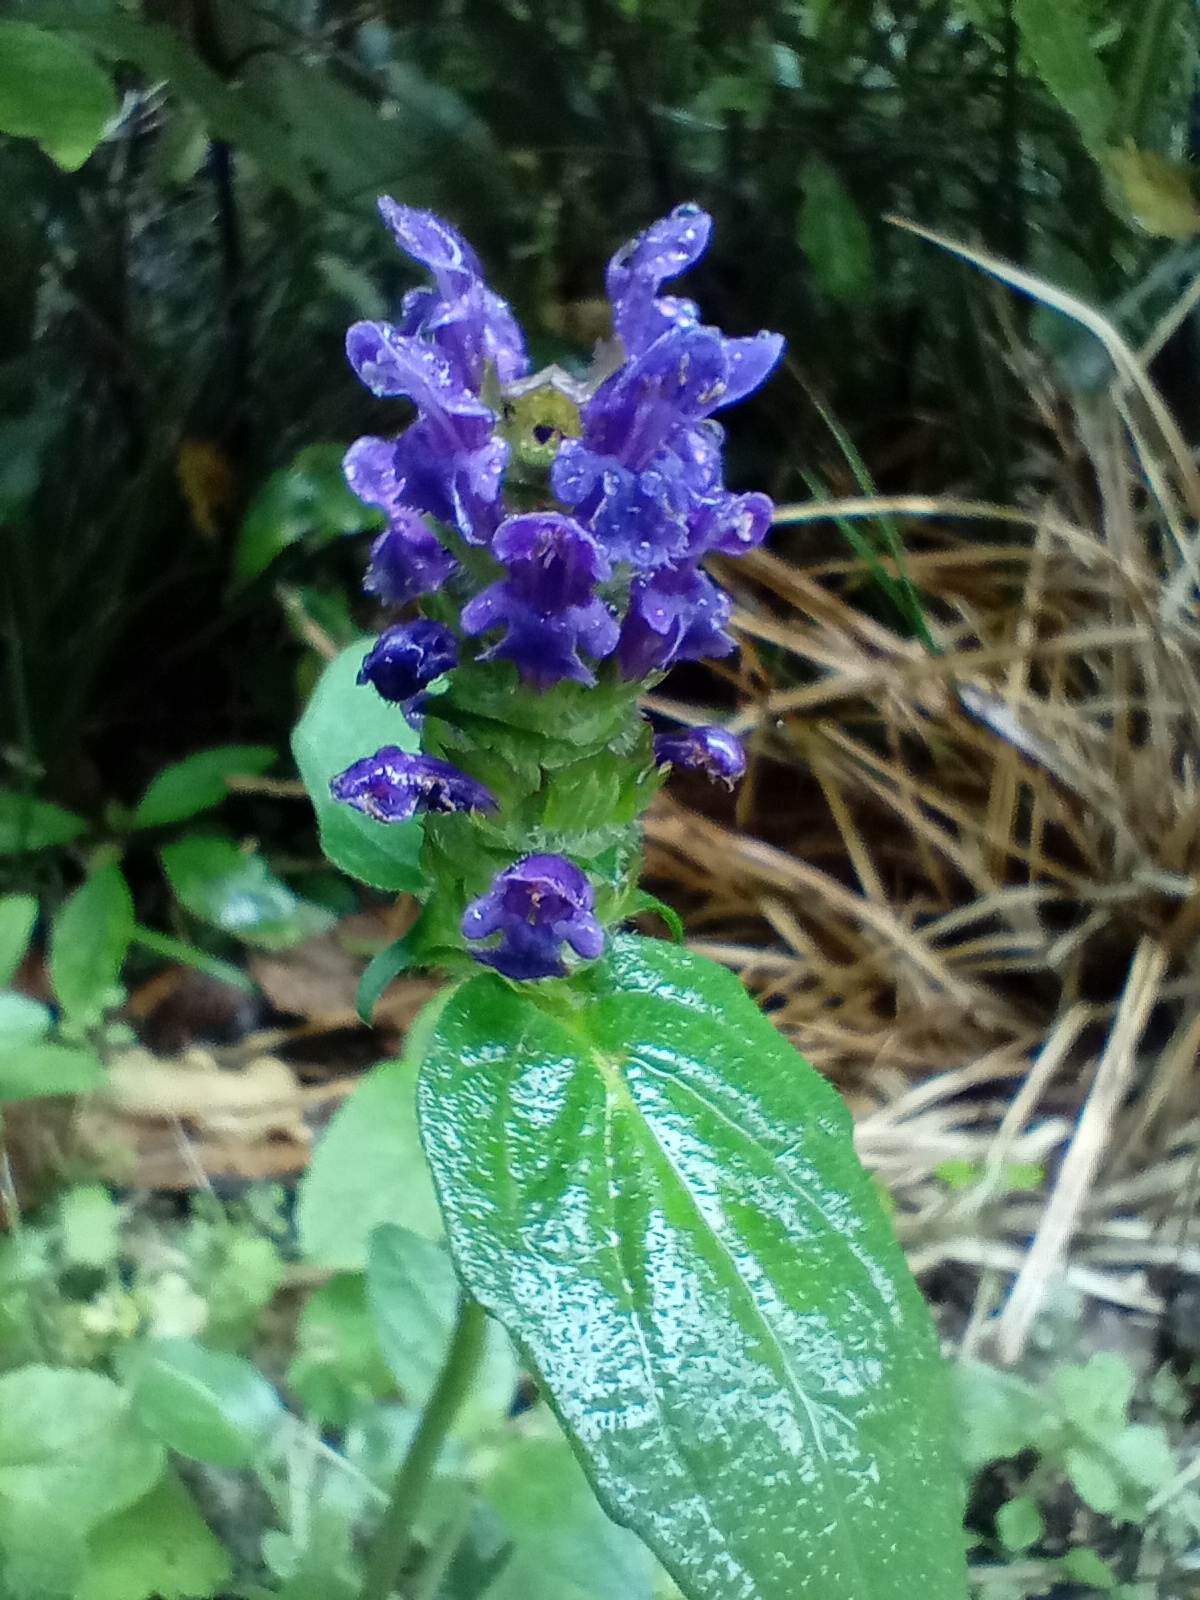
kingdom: Plantae
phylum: Tracheophyta
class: Magnoliopsida
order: Lamiales
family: Lamiaceae
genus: Prunella
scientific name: Prunella vulgaris
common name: Heal-all
